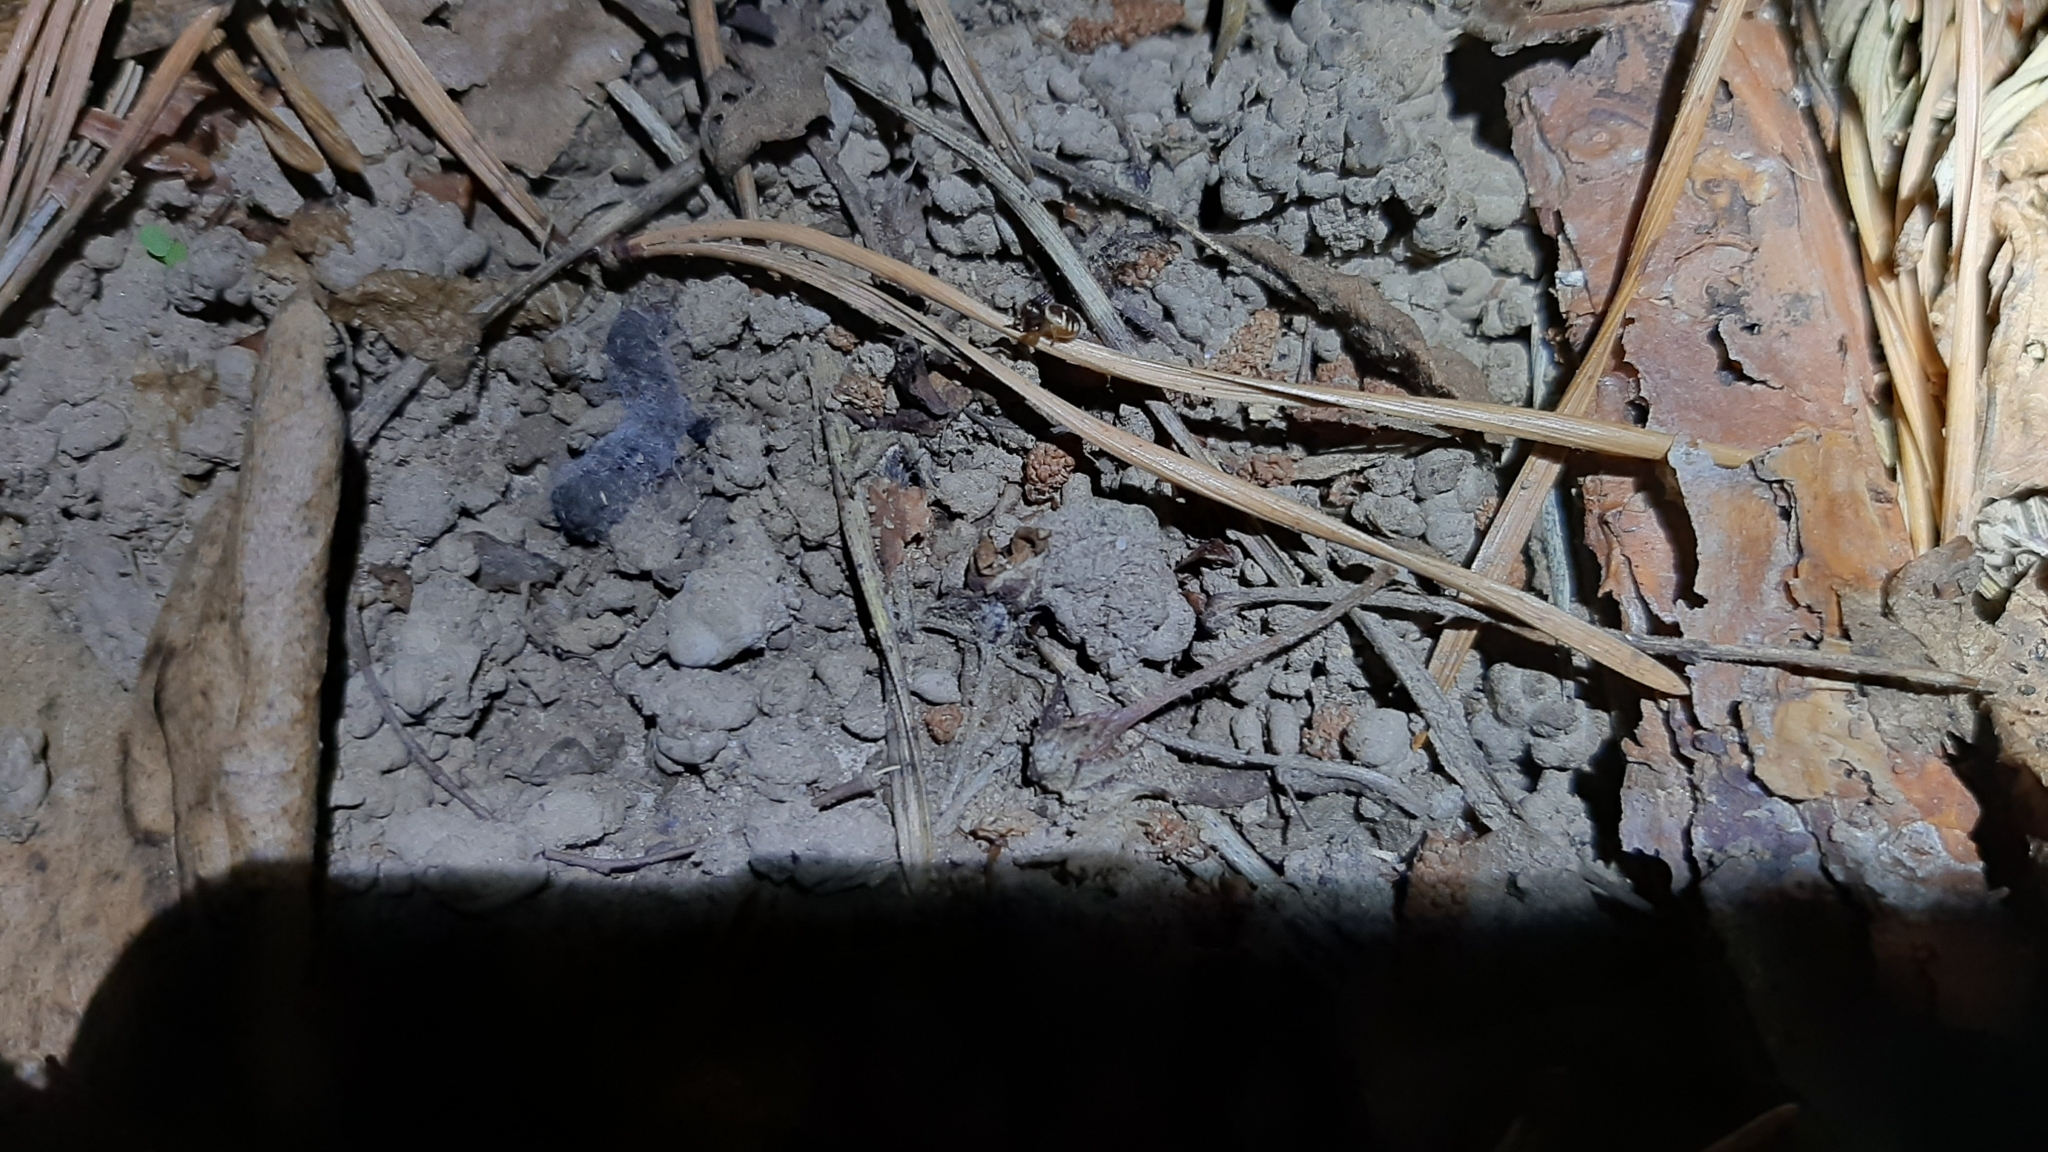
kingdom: Animalia
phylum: Arthropoda
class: Arachnida
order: Araneae
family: Thomisidae
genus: Synema
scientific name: Synema globosum
